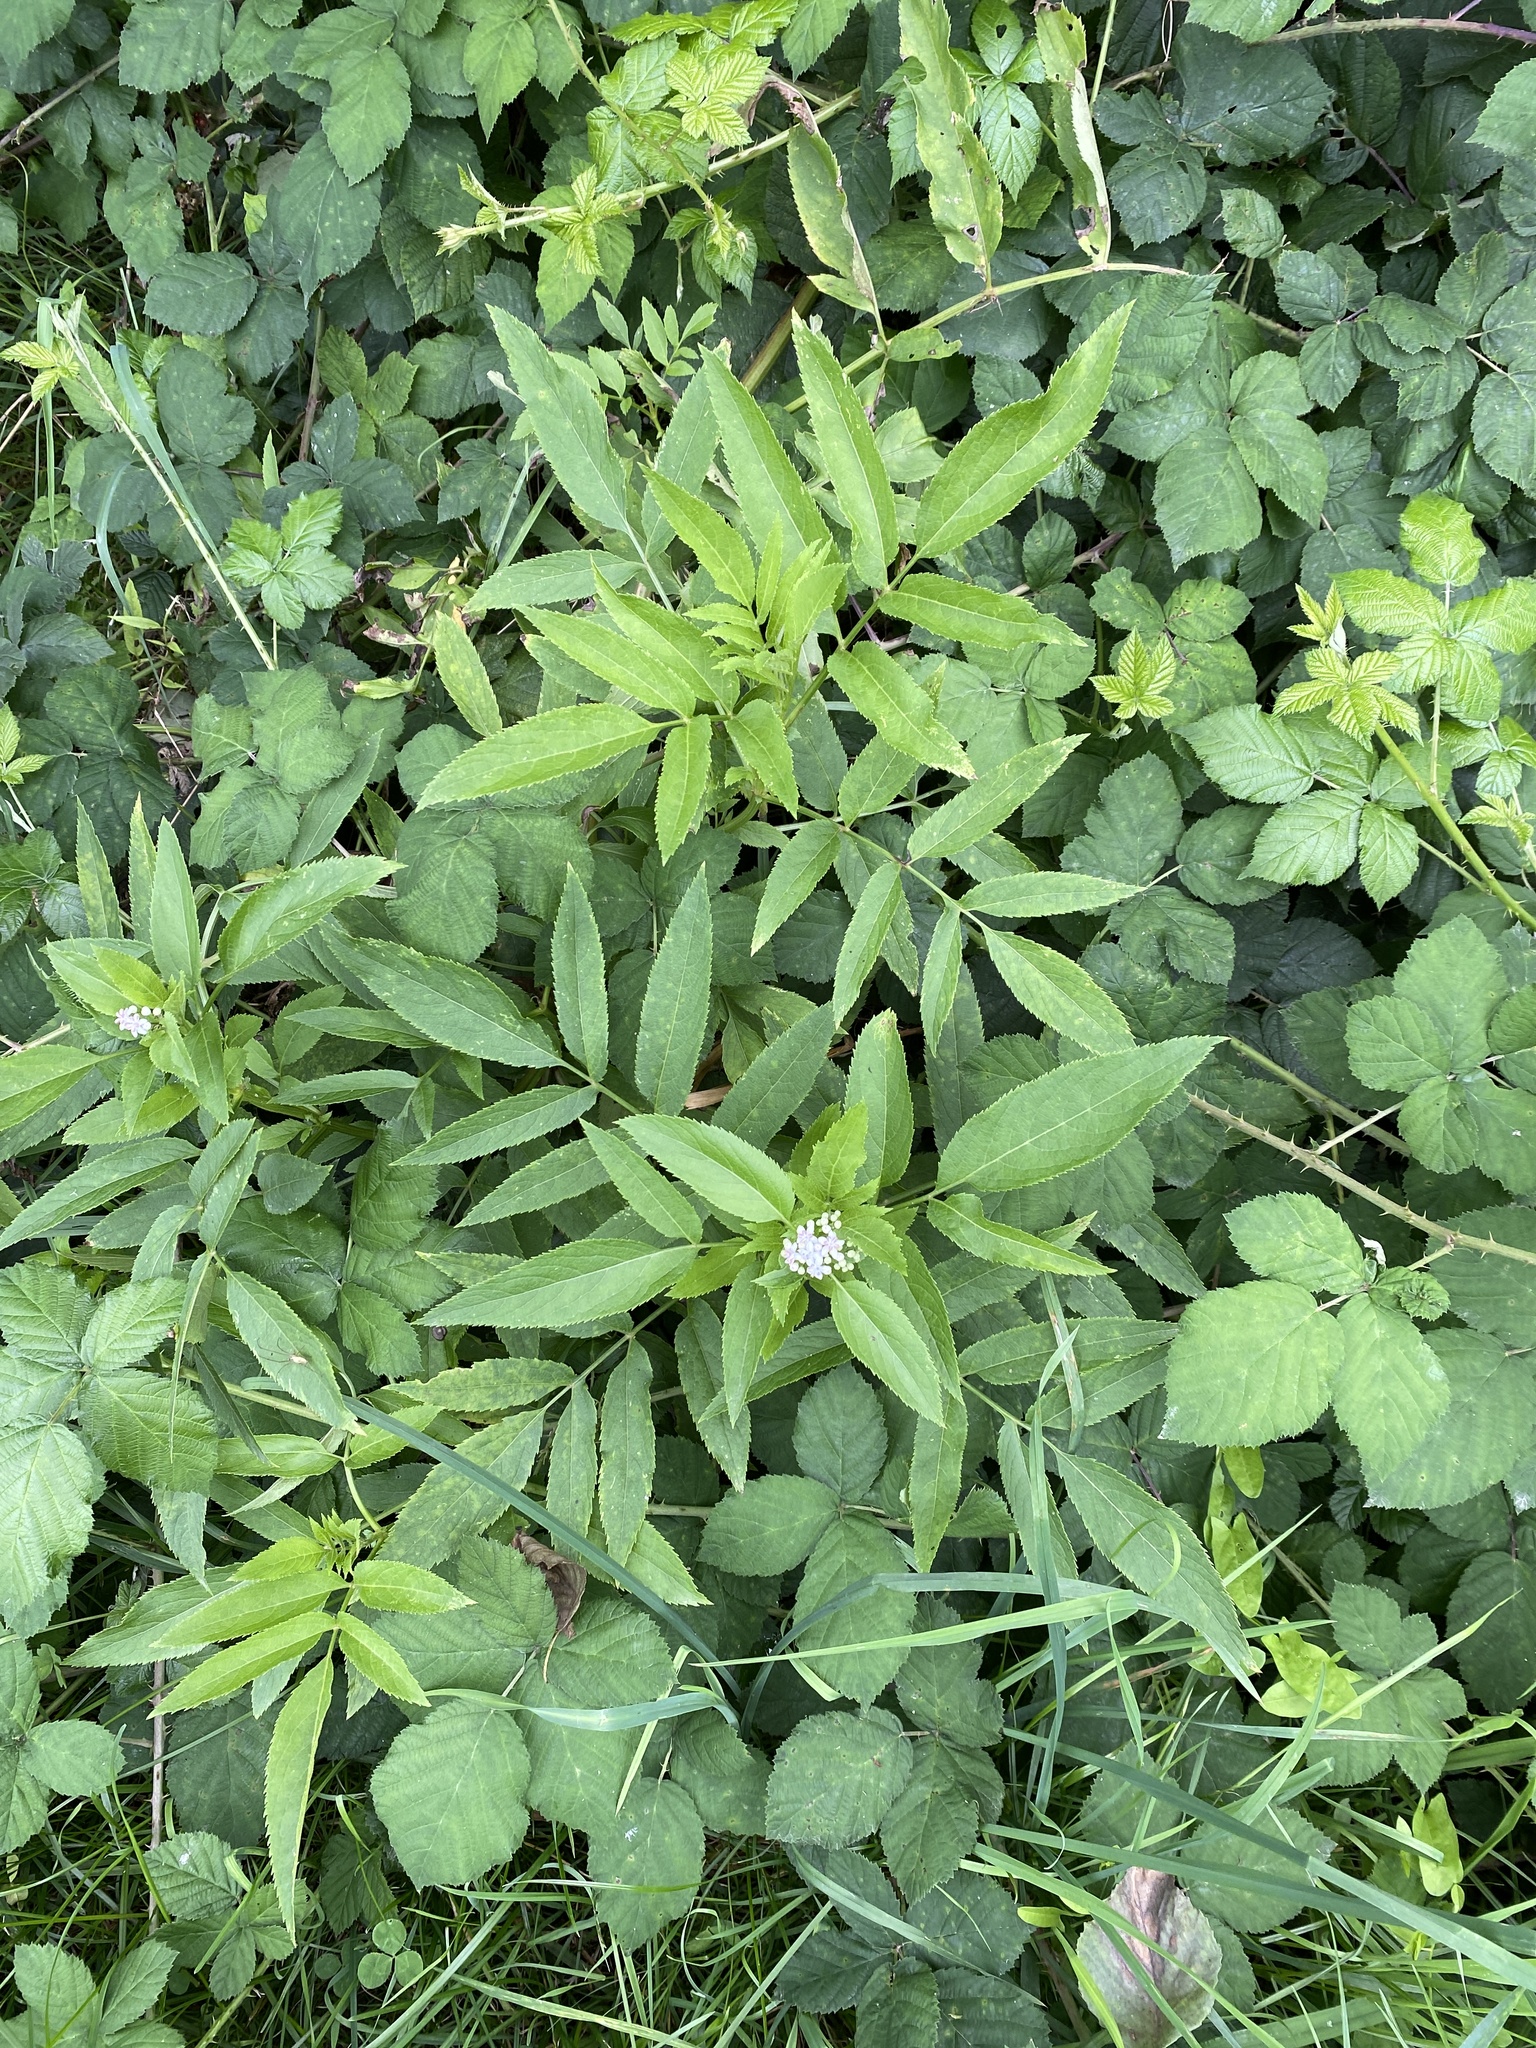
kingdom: Plantae
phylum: Tracheophyta
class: Magnoliopsida
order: Dipsacales
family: Viburnaceae
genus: Sambucus
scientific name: Sambucus ebulus
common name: Dwarf elder
